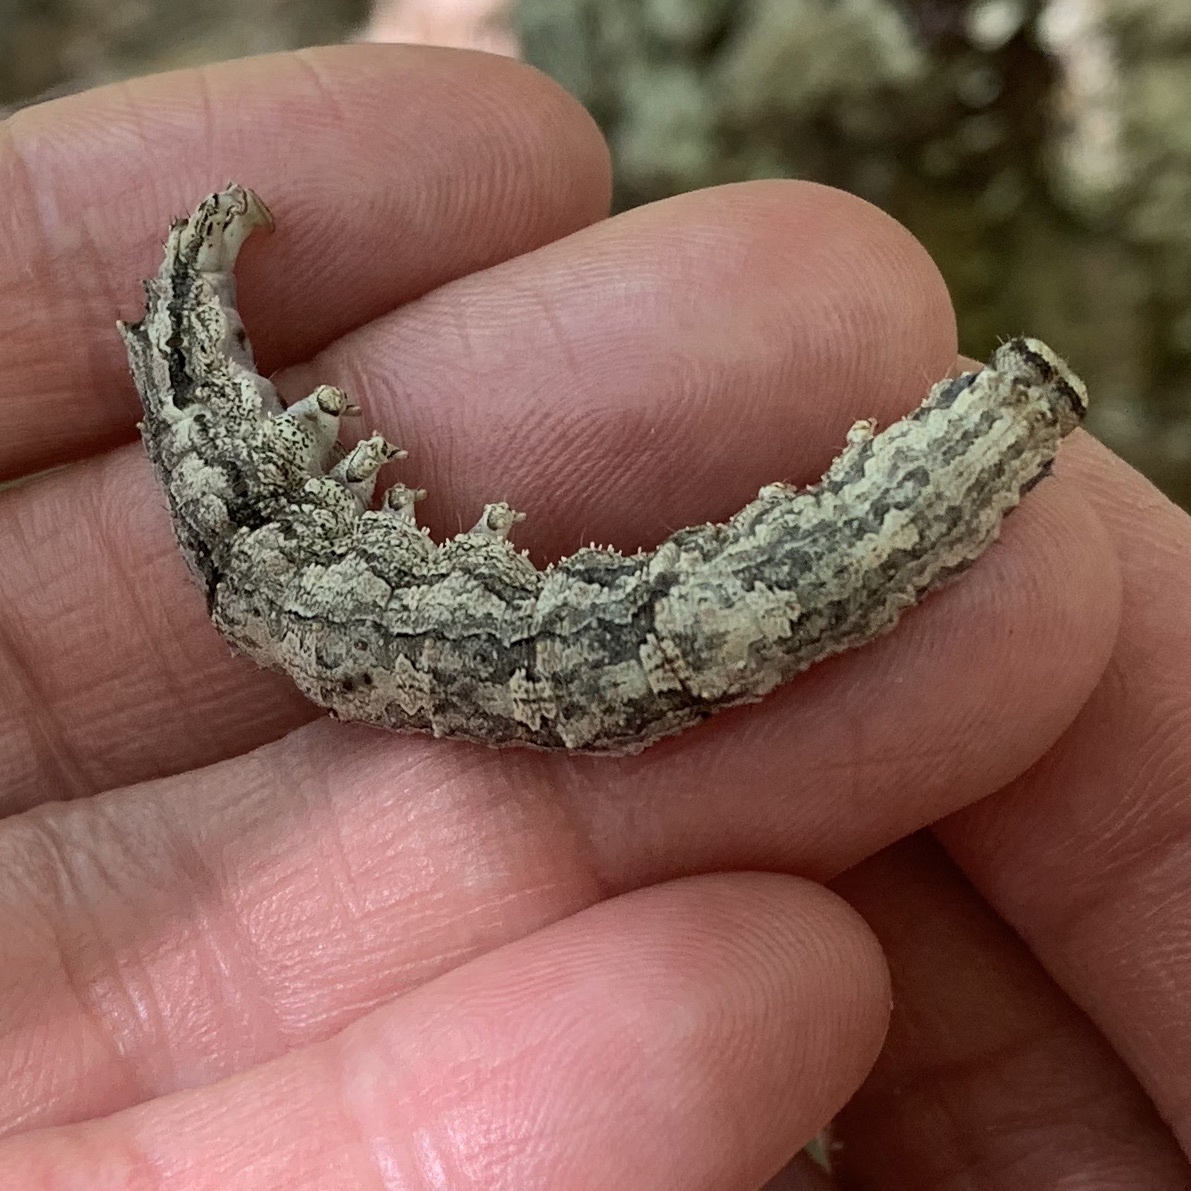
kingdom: Animalia
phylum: Arthropoda
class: Insecta
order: Lepidoptera
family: Erebidae
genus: Catocala
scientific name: Catocala ilia
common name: Ilia underwing
